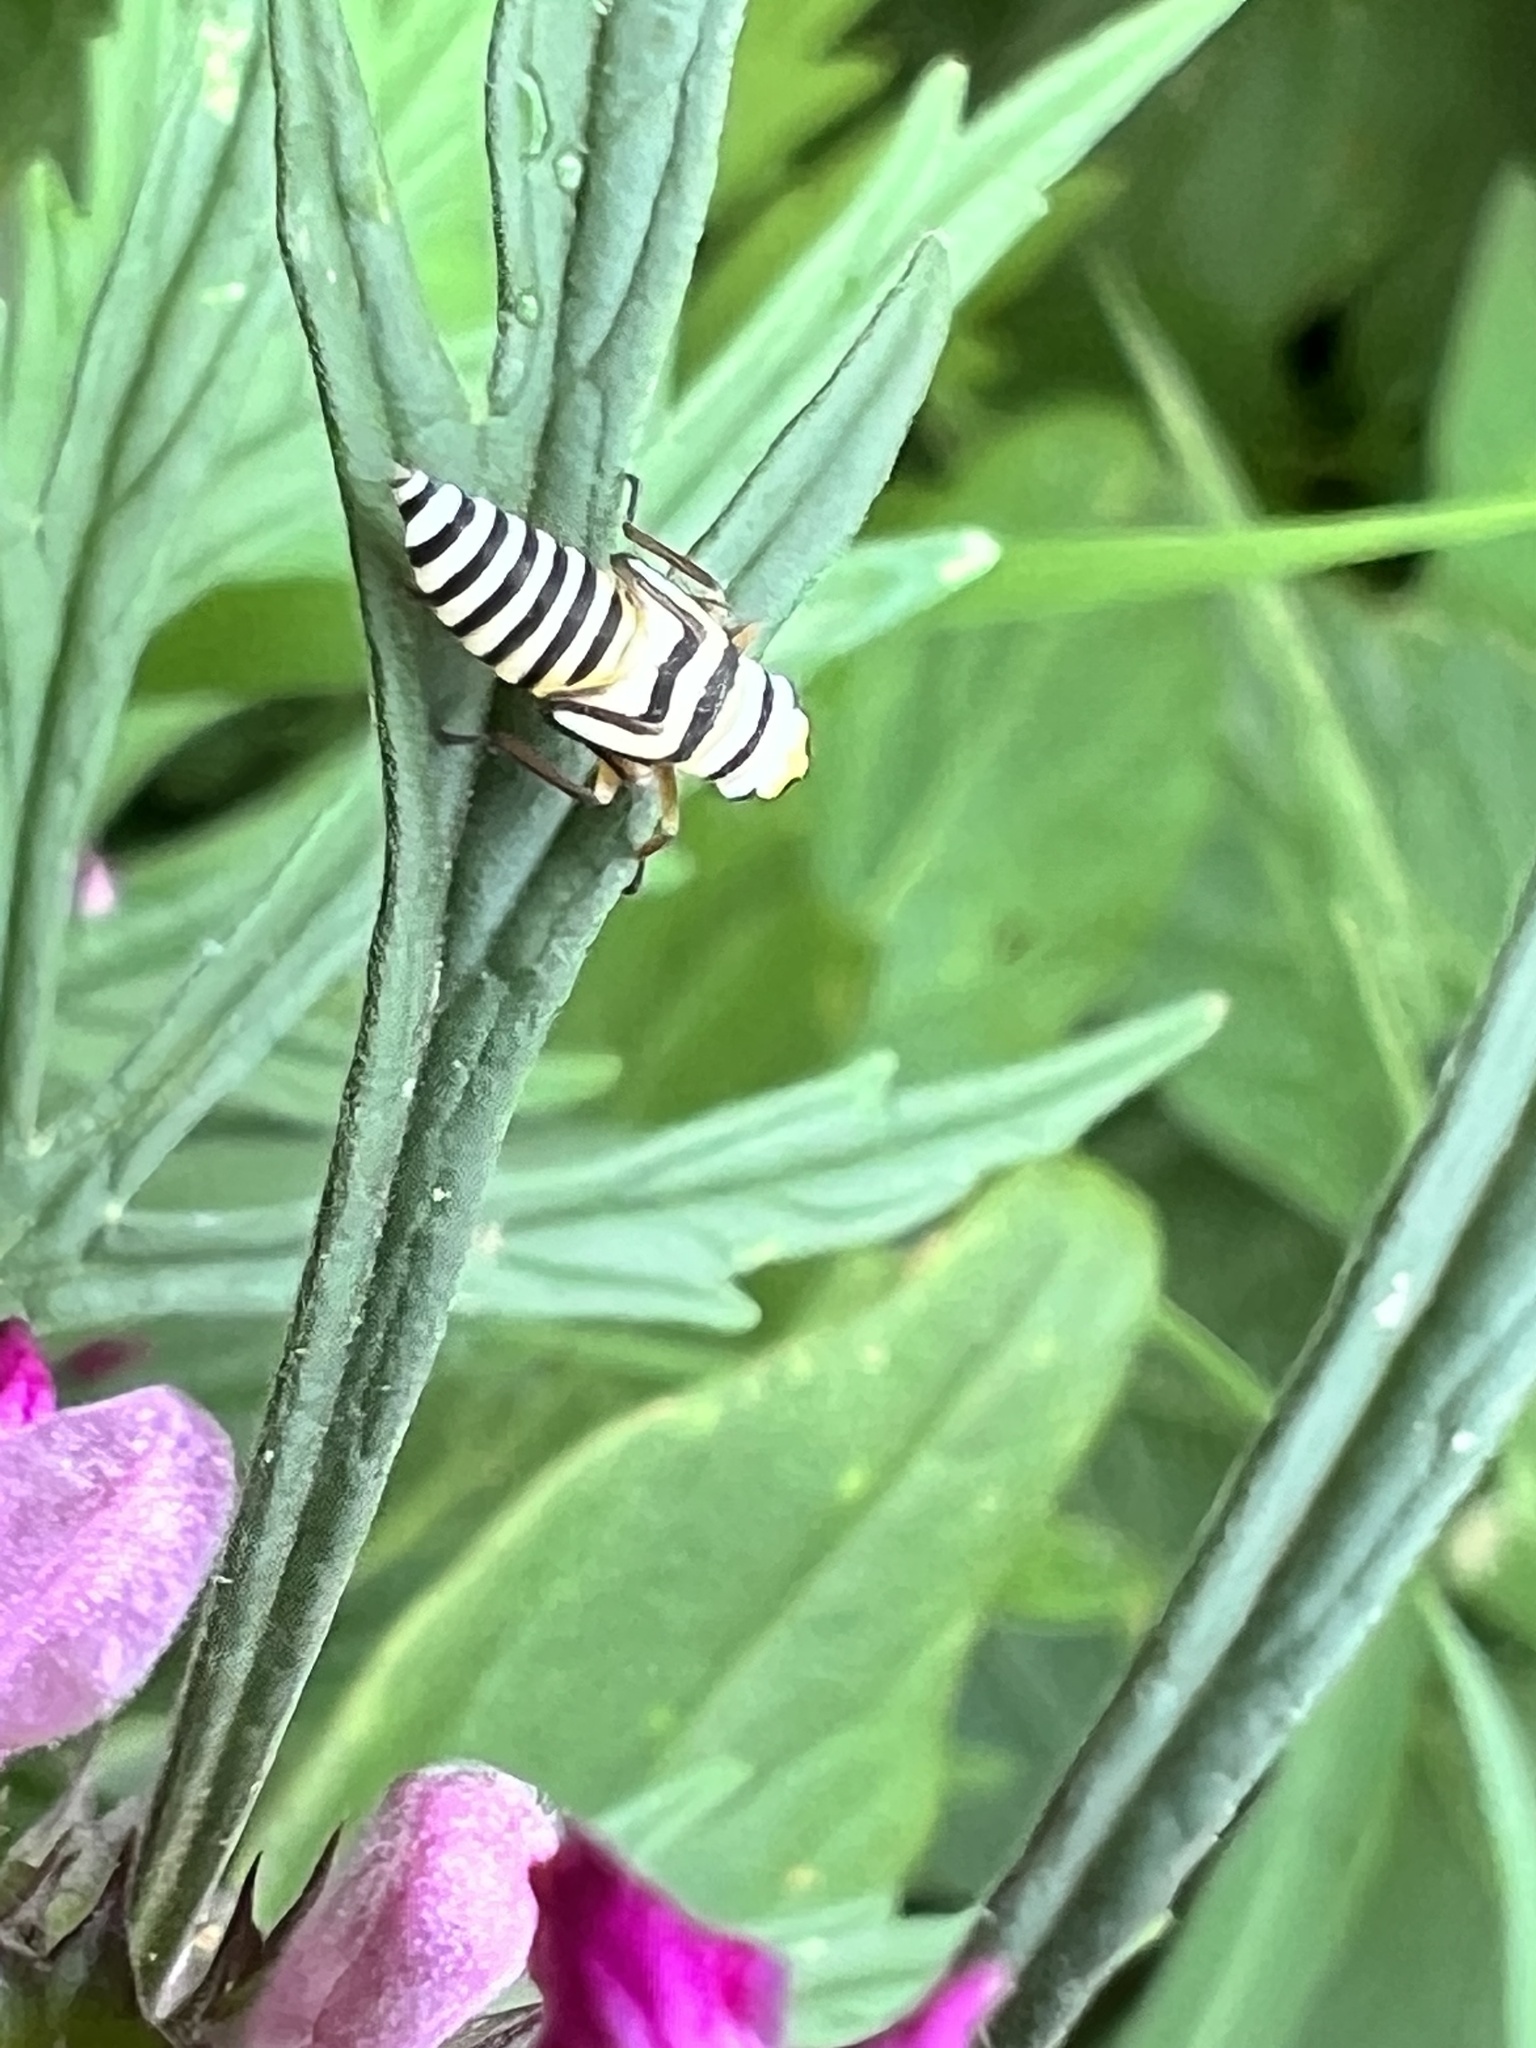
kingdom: Animalia
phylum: Arthropoda
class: Insecta
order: Hemiptera
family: Cicadellidae
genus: Agrosoma
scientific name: Agrosoma placetis
